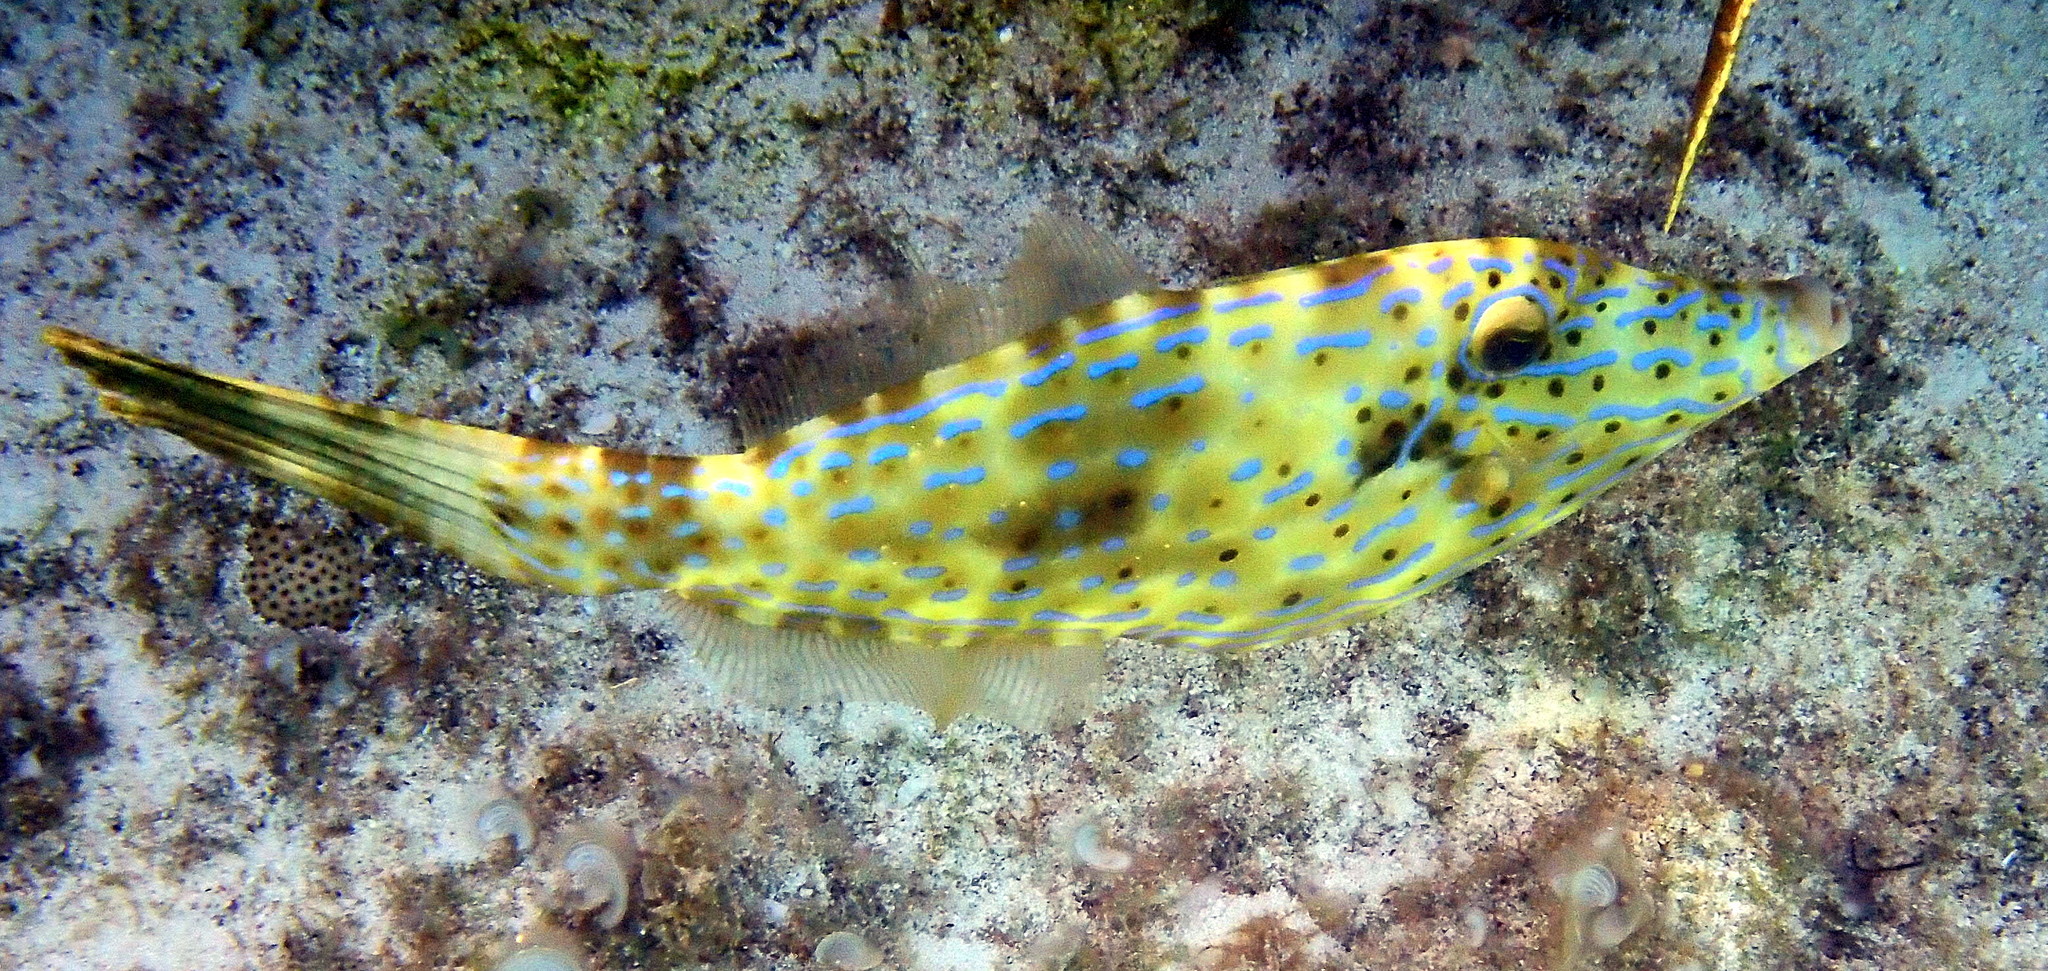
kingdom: Animalia
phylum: Chordata
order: Tetraodontiformes
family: Monacanthidae
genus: Aluterus
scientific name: Aluterus scriptus
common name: Scribbled leatherjacket filefish
